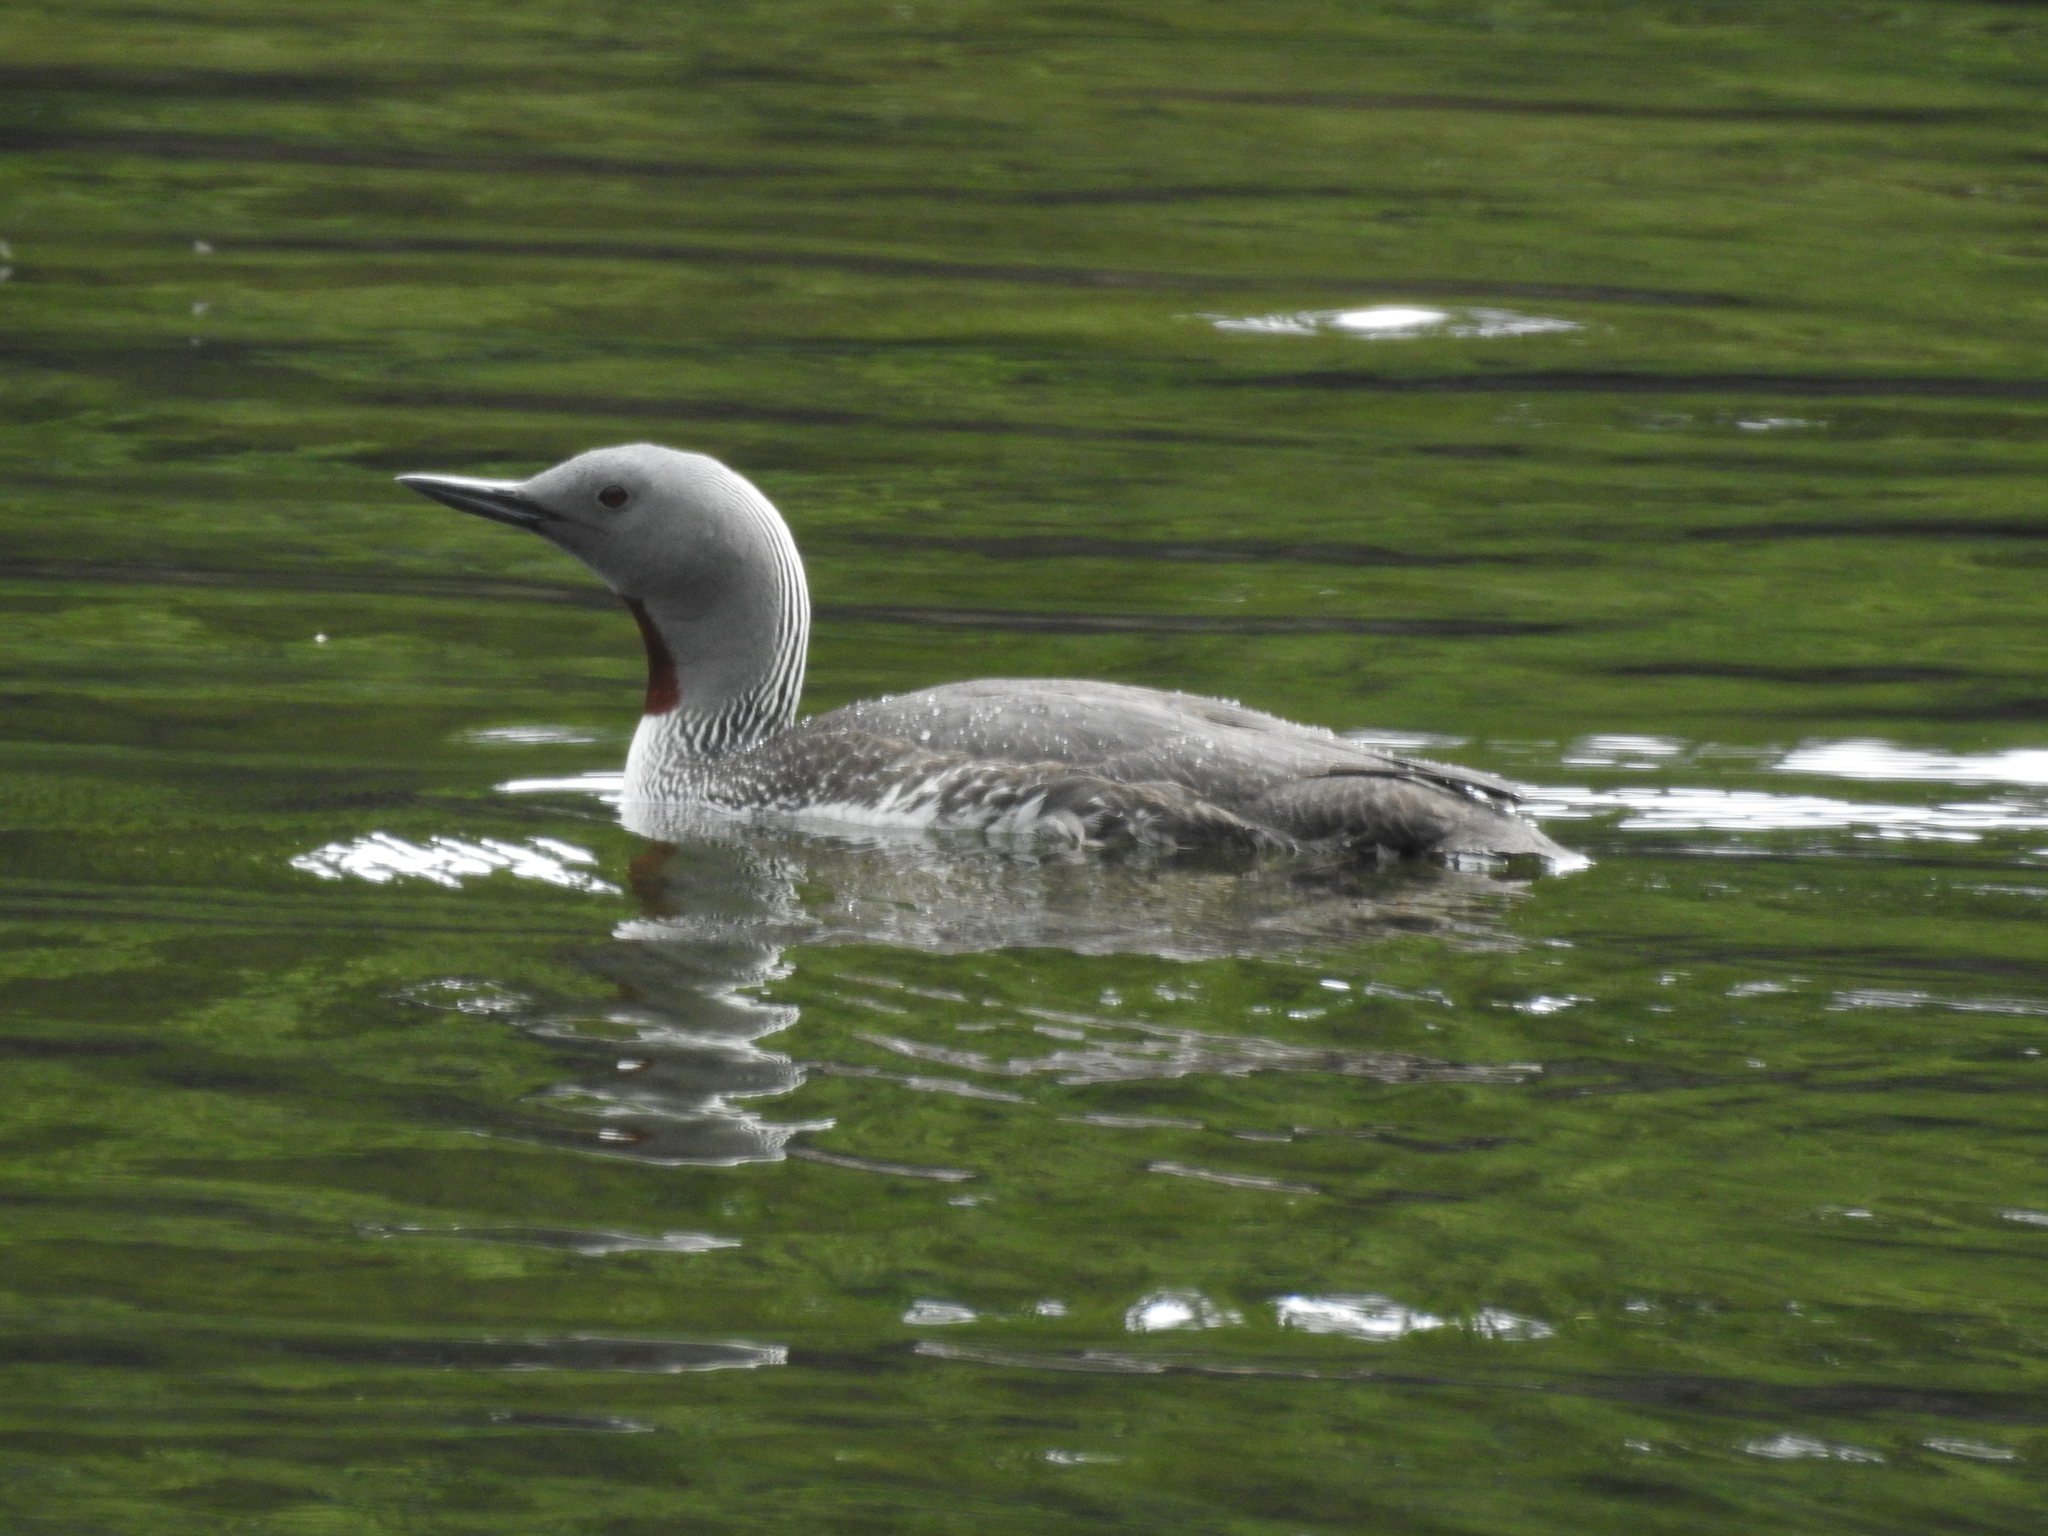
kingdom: Animalia
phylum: Chordata
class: Aves
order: Gaviiformes
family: Gaviidae
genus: Gavia
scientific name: Gavia stellata
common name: Red-throated loon
